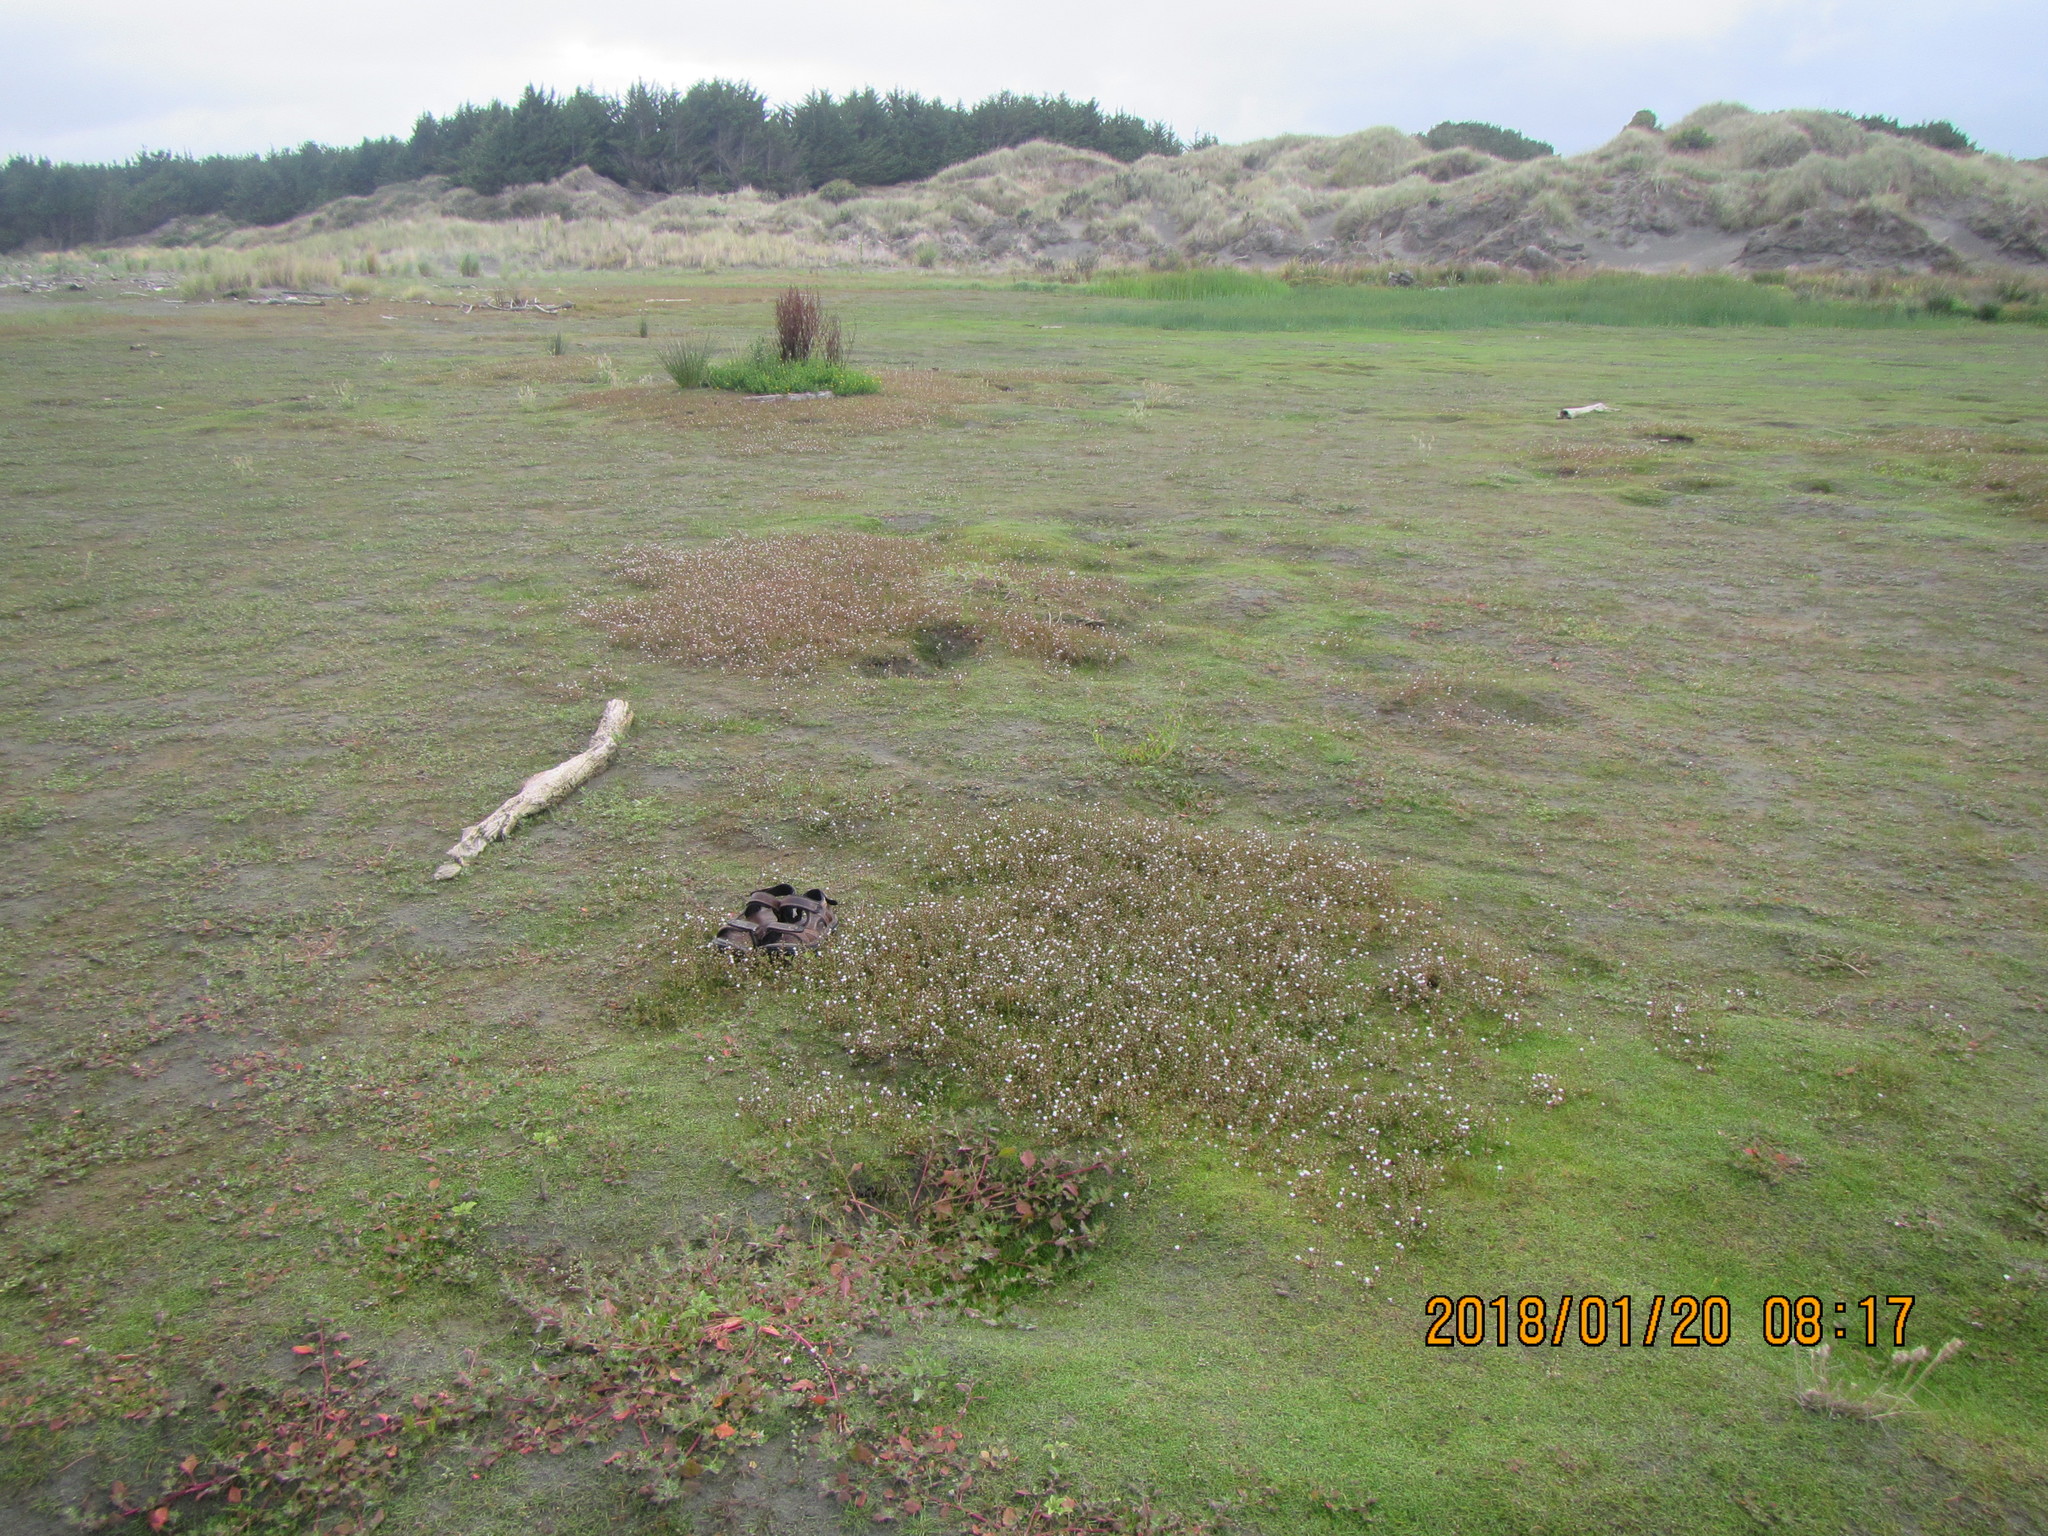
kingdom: Plantae
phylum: Tracheophyta
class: Magnoliopsida
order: Ericales
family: Primulaceae
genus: Samolus
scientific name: Samolus repens
